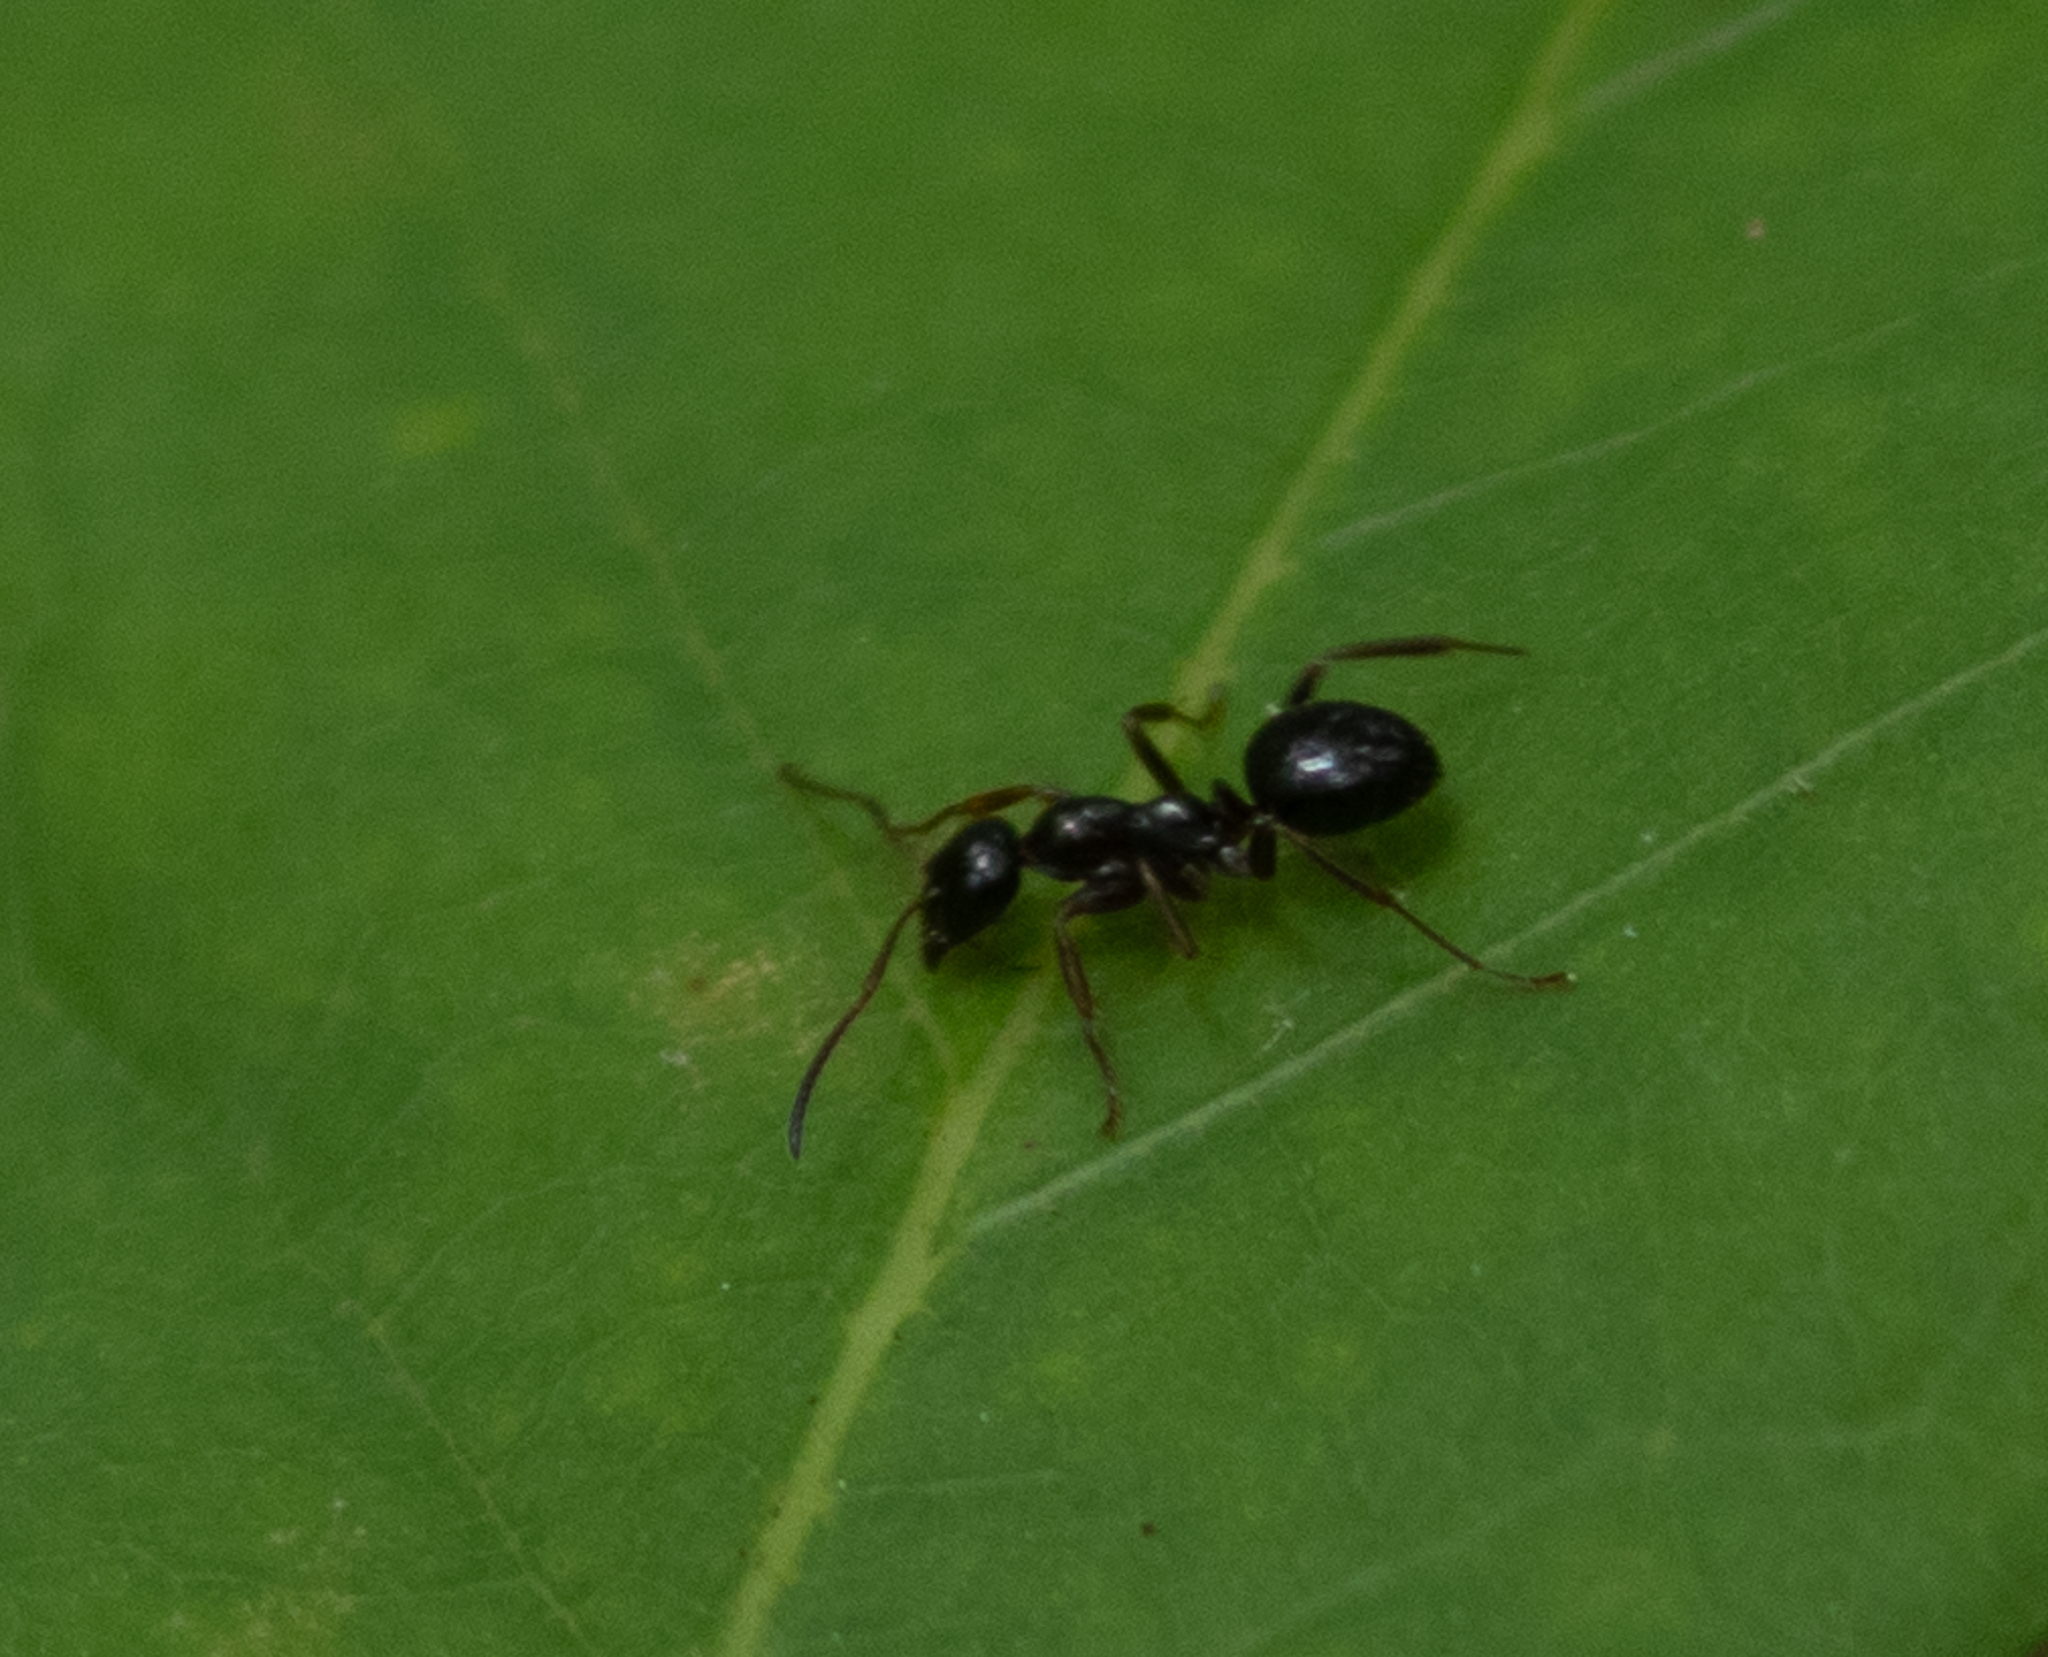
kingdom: Animalia
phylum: Arthropoda
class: Insecta
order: Hymenoptera
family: Formicidae
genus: Formica
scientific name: Formica
